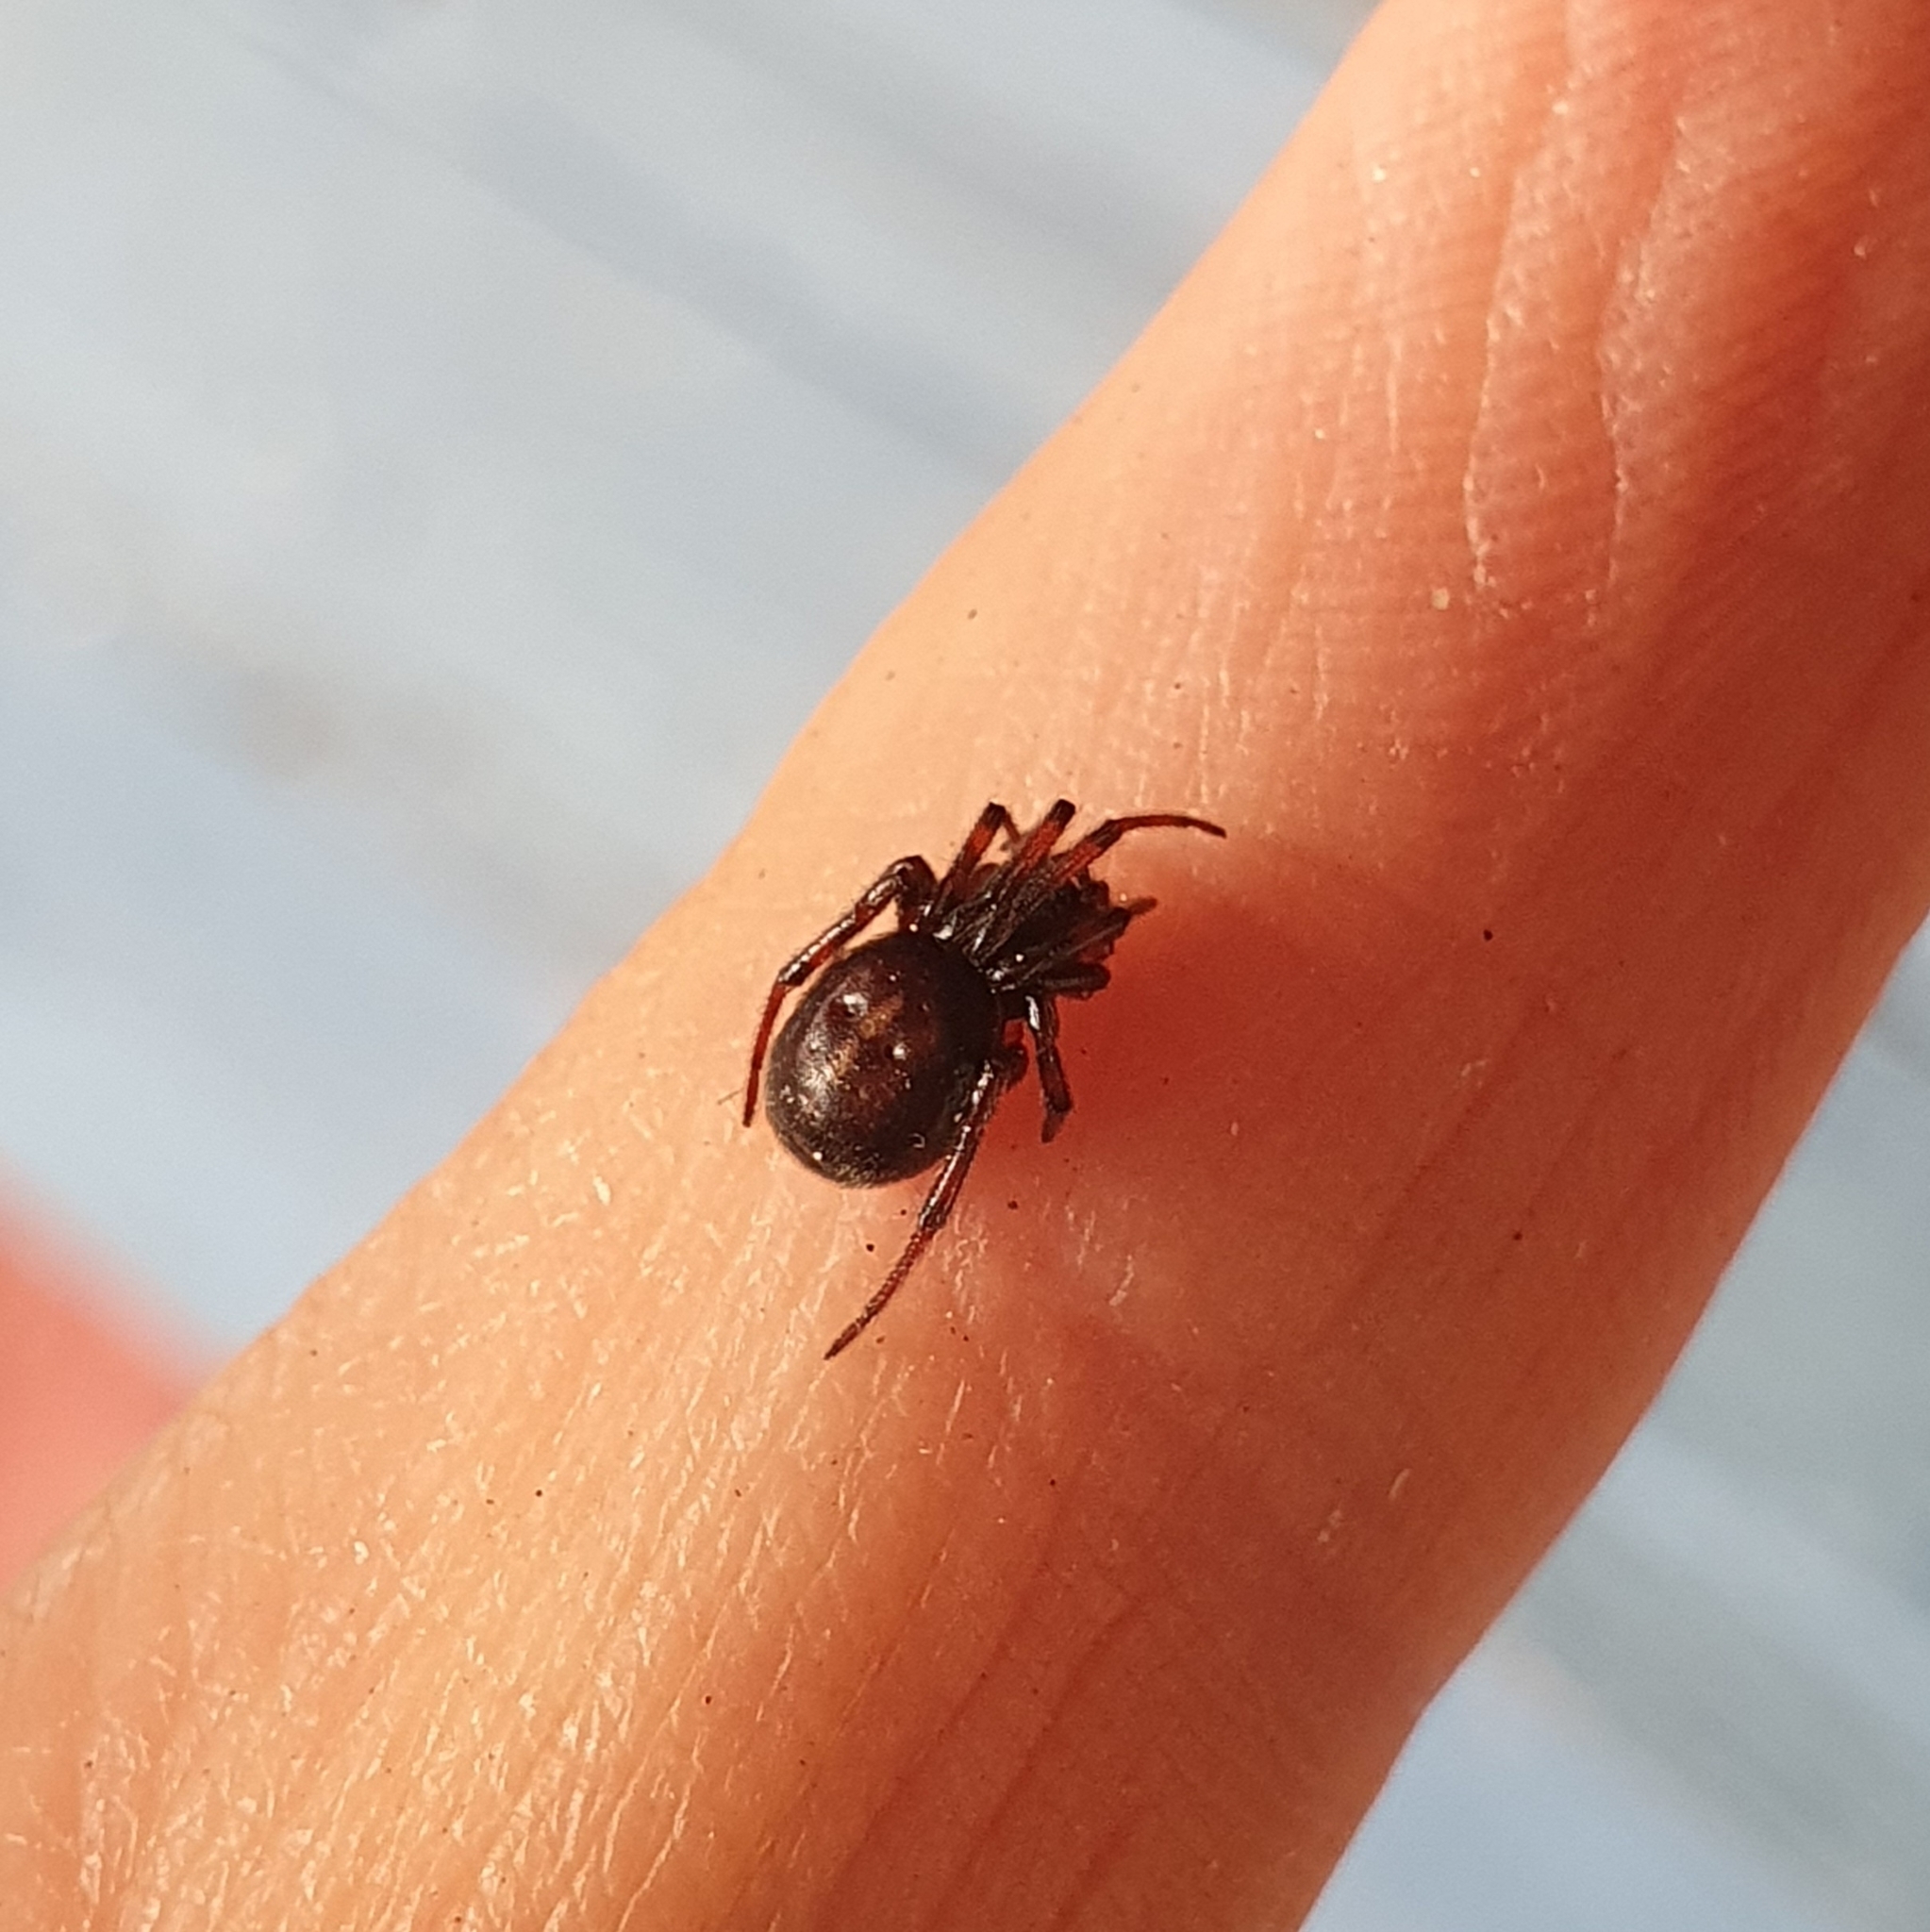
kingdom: Animalia
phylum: Arthropoda
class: Arachnida
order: Araneae
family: Theridiidae
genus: Steatoda
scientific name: Steatoda bipunctata
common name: False widow
